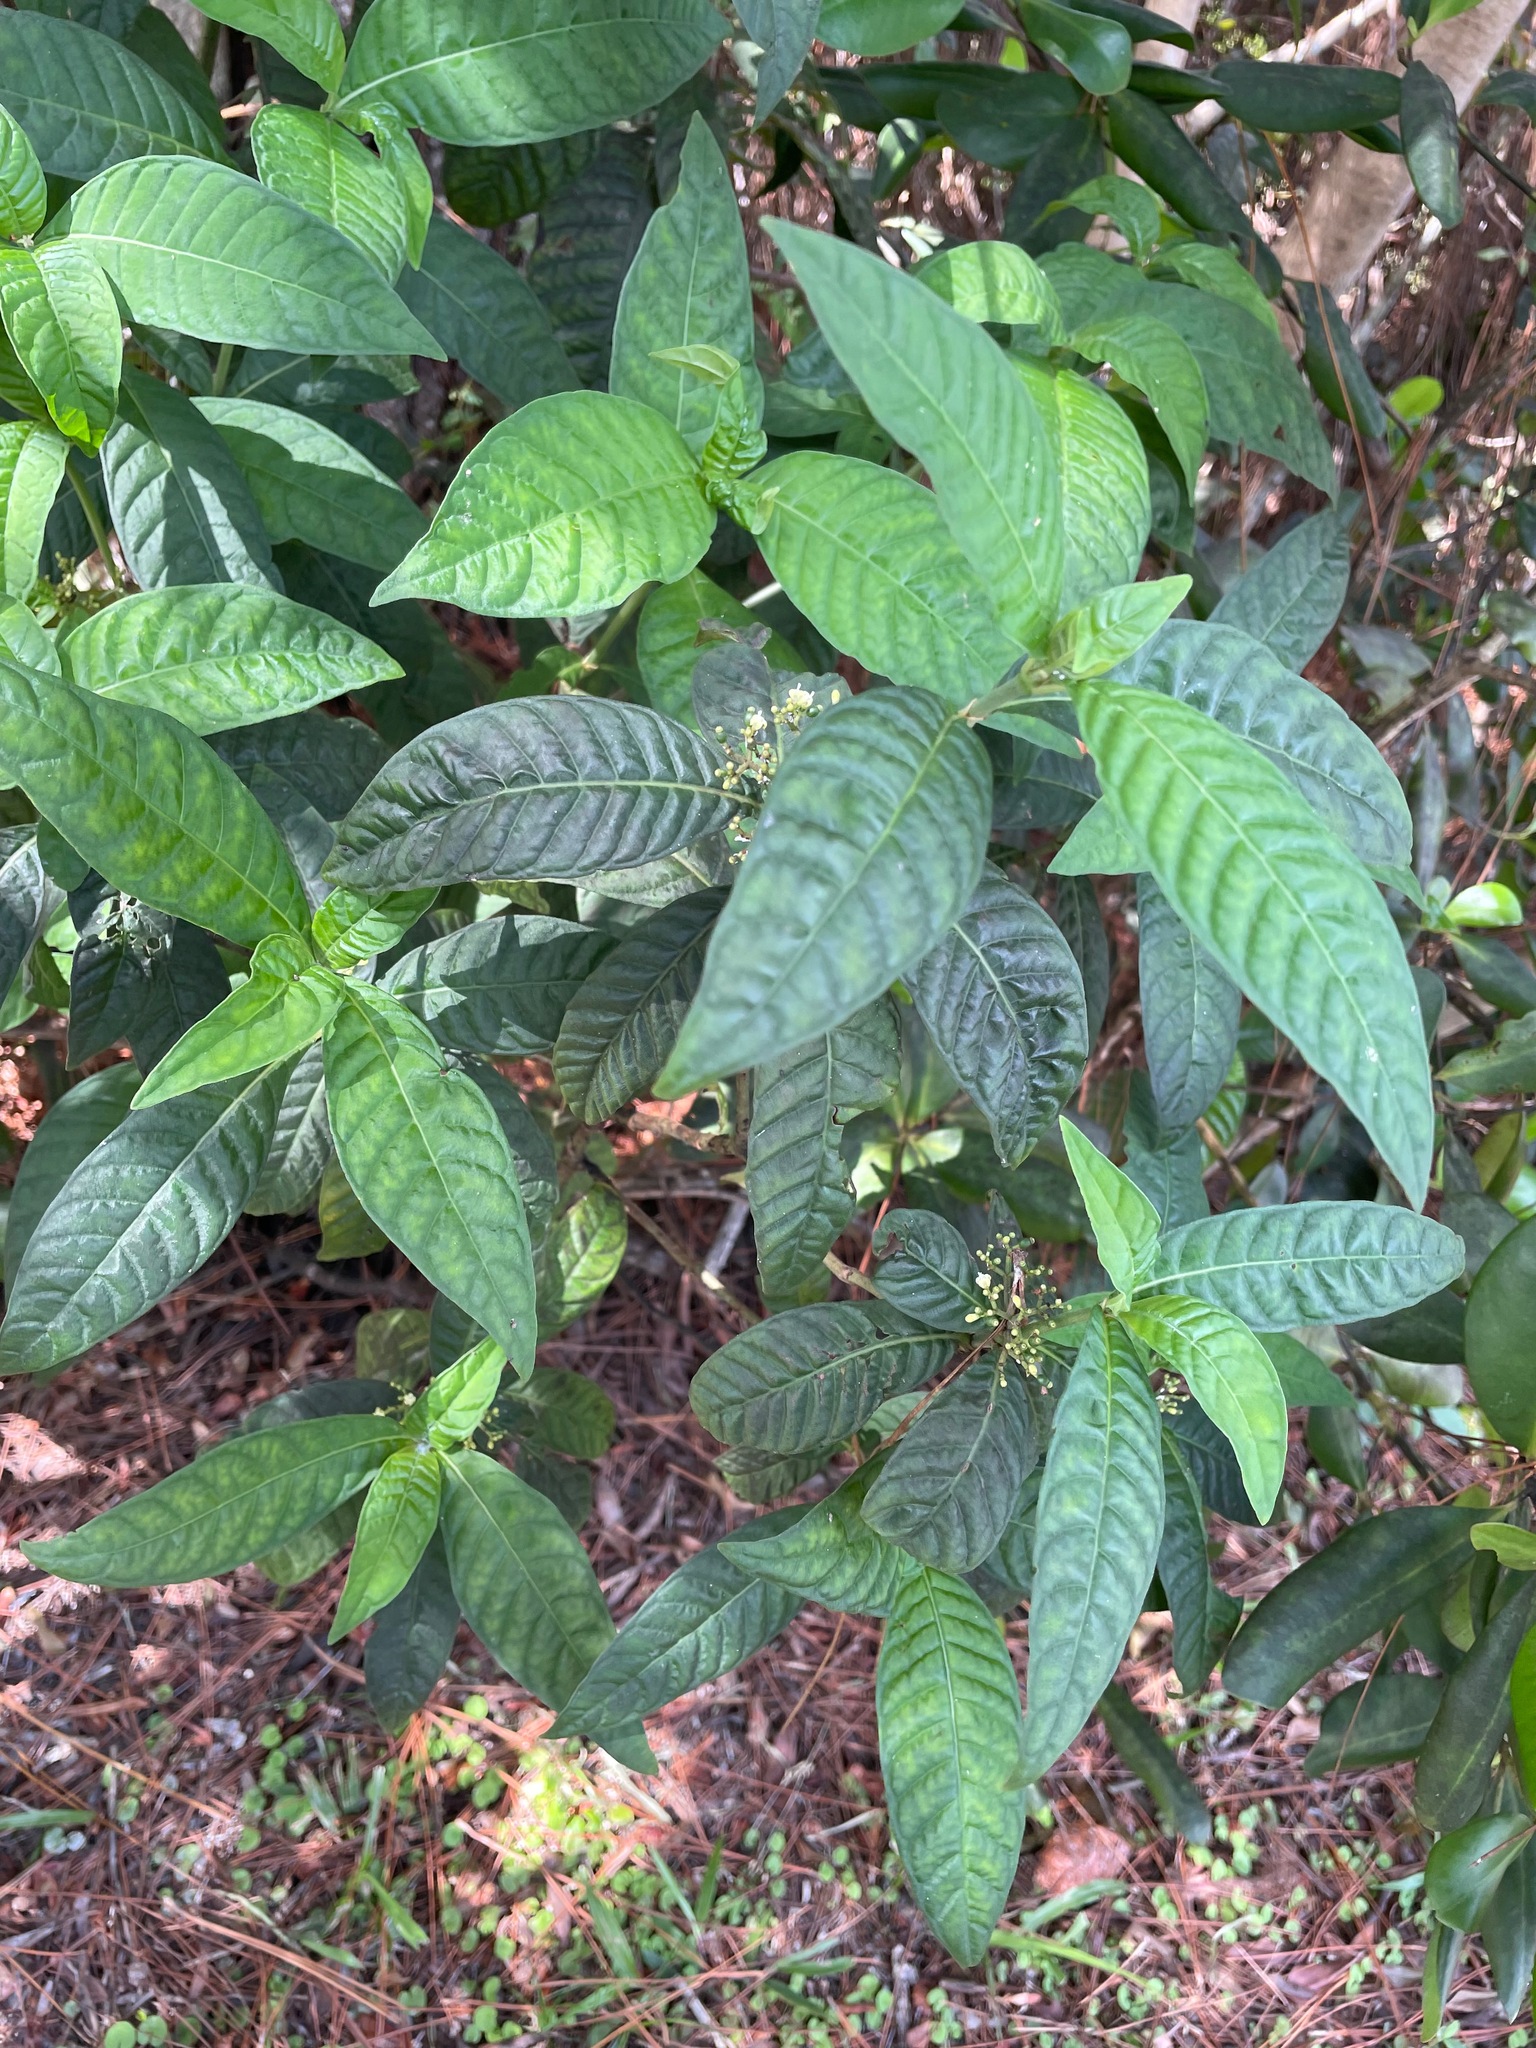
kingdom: Plantae
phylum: Tracheophyta
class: Magnoliopsida
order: Gentianales
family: Rubiaceae
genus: Psychotria
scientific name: Psychotria tenuifolia
